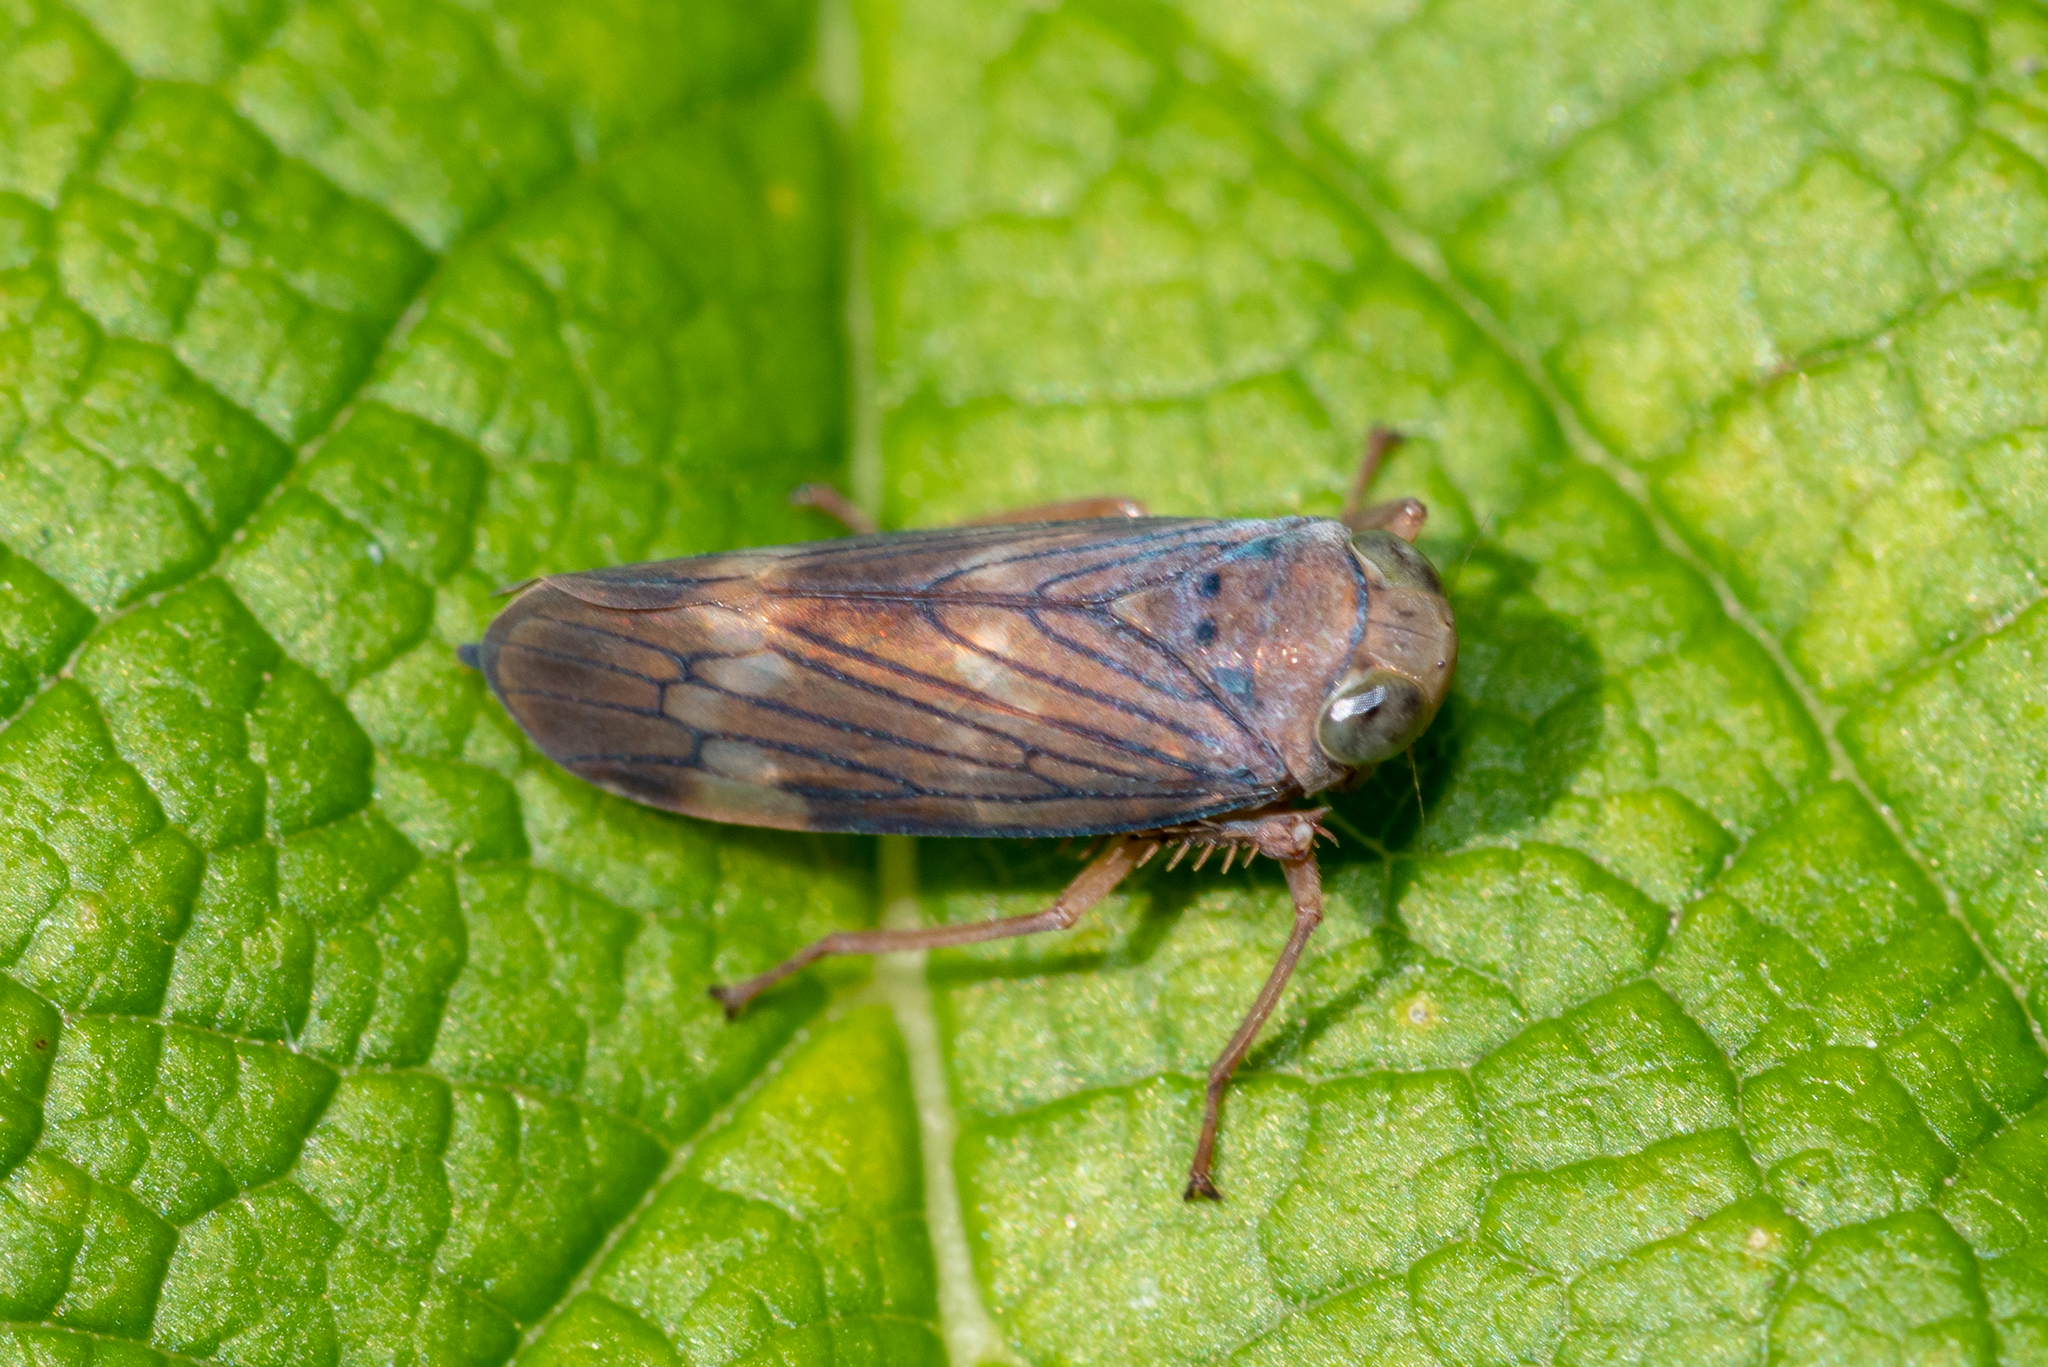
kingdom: Animalia
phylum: Arthropoda
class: Insecta
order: Hemiptera
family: Cicadellidae
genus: Jikradia
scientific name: Jikradia olitoria
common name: Coppery leafhopper
